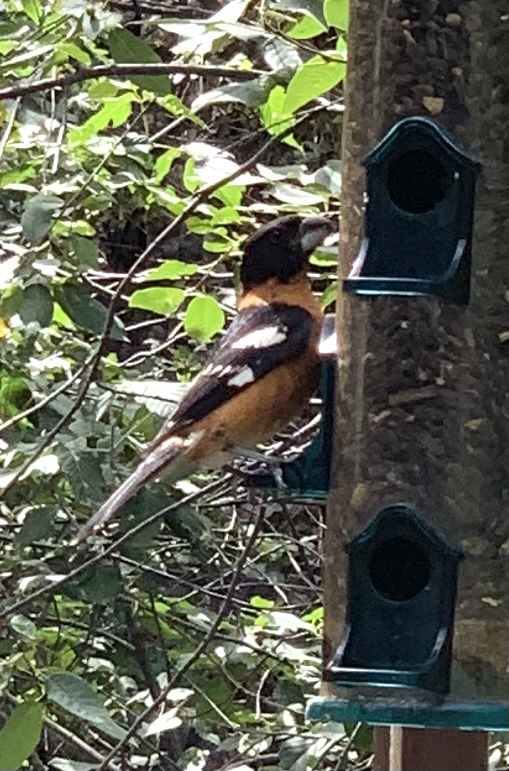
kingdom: Animalia
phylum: Chordata
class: Aves
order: Passeriformes
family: Cardinalidae
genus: Pheucticus
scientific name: Pheucticus melanocephalus
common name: Black-headed grosbeak
